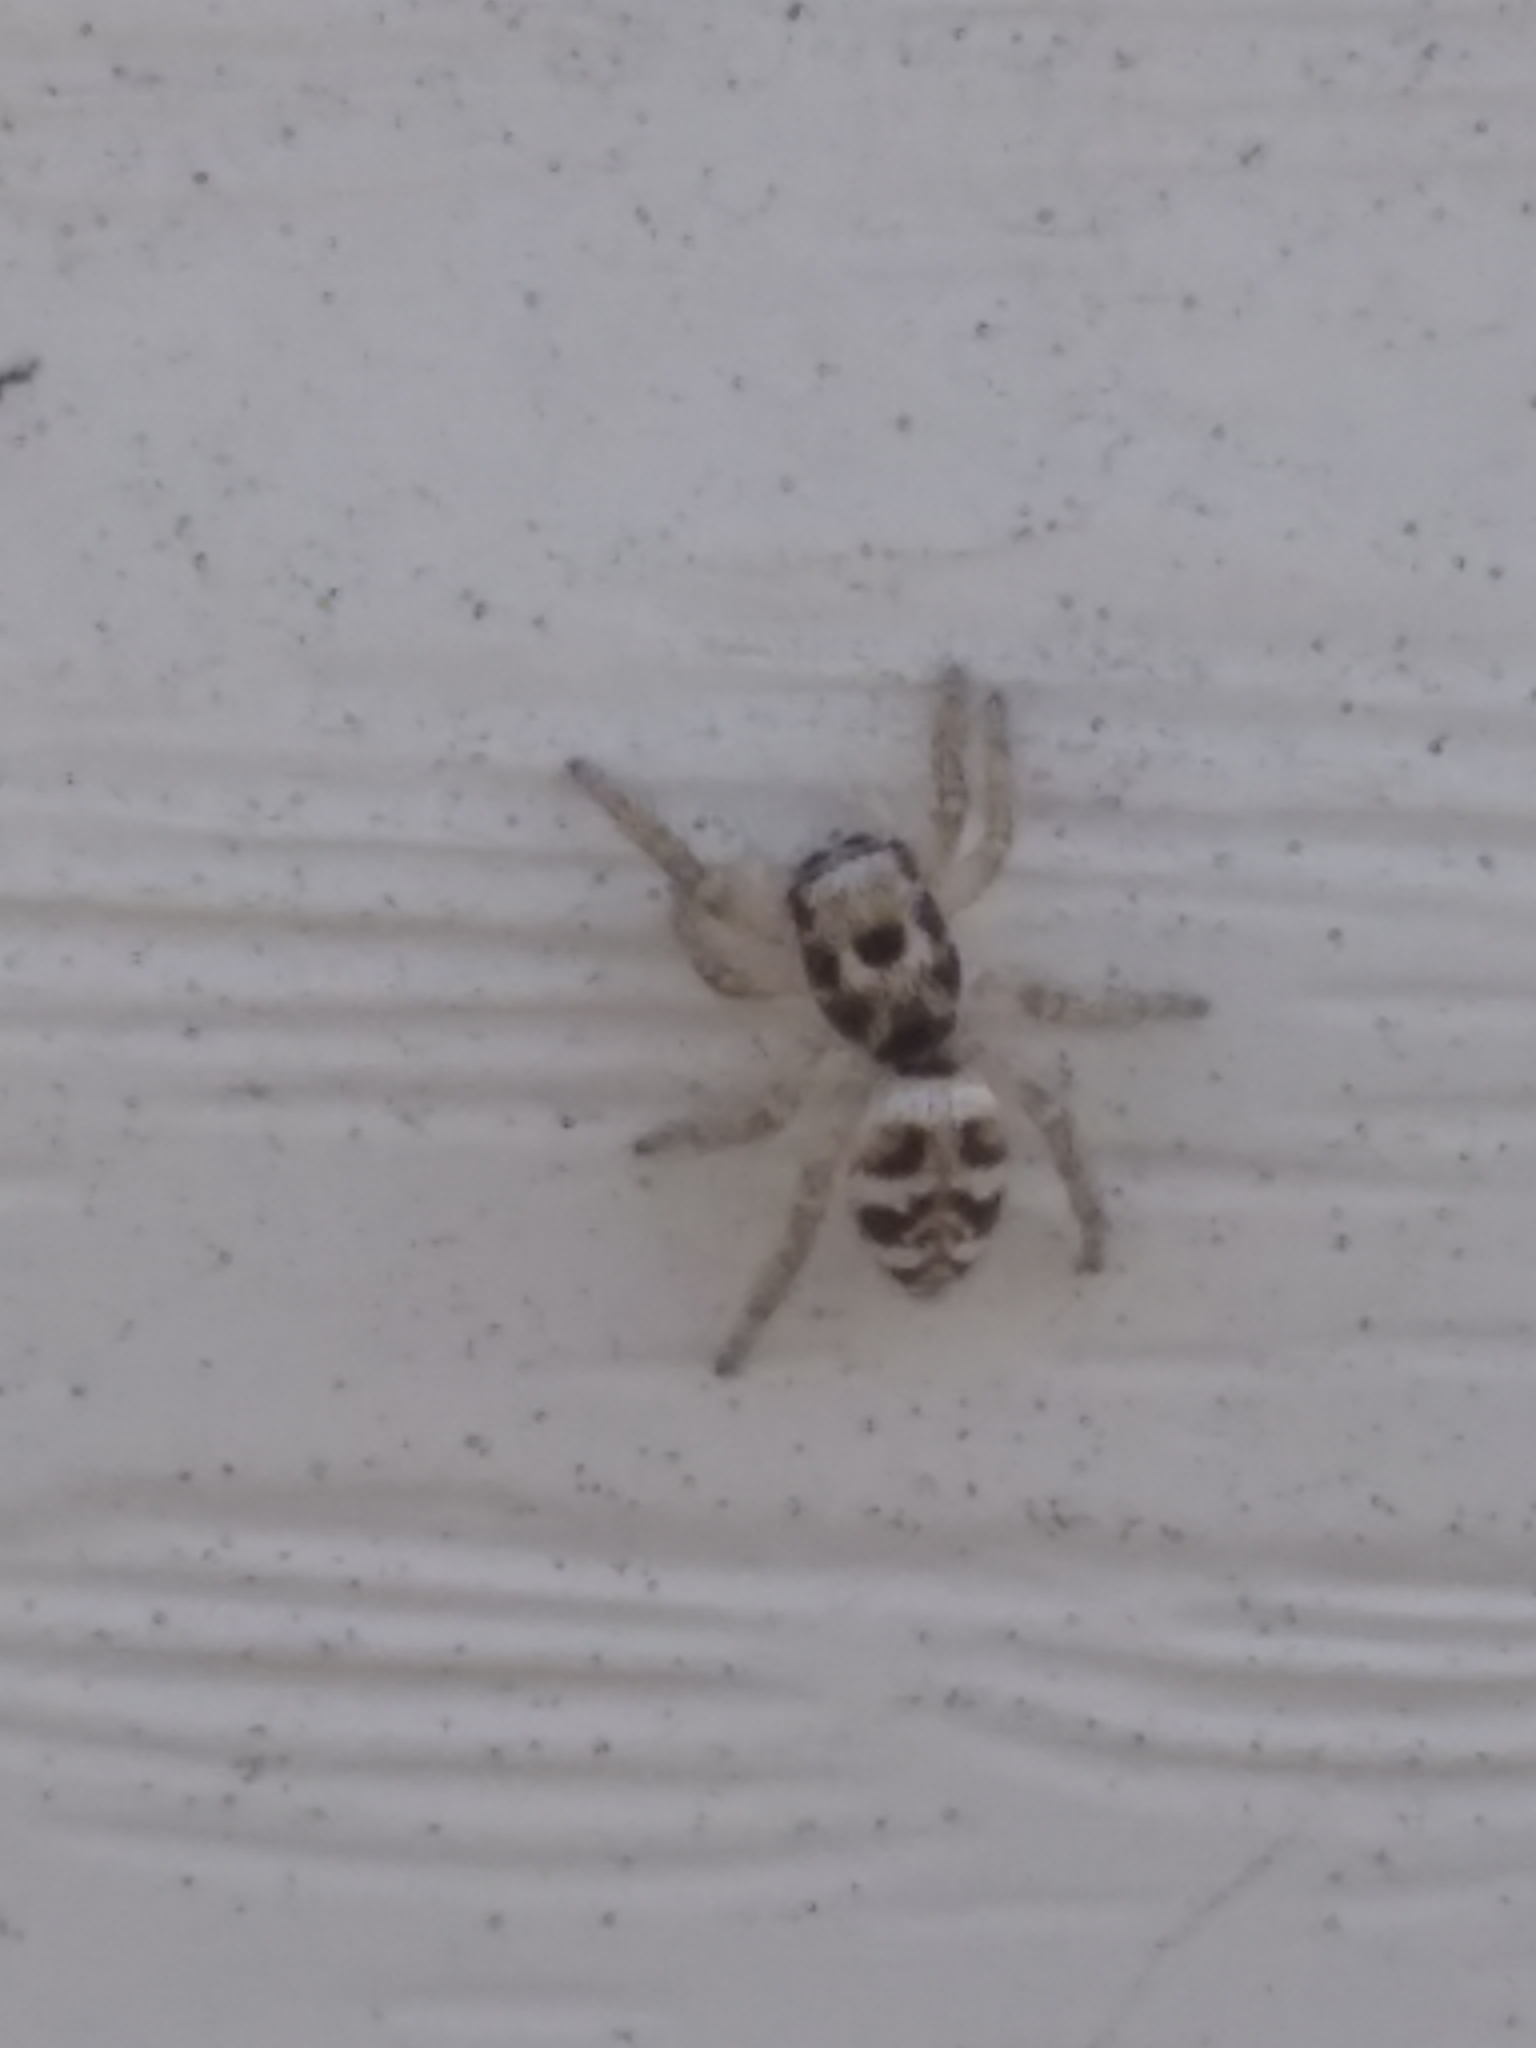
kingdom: Animalia
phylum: Arthropoda
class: Arachnida
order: Araneae
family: Salticidae
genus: Salticus
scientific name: Salticus scenicus
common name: Zebra jumper
